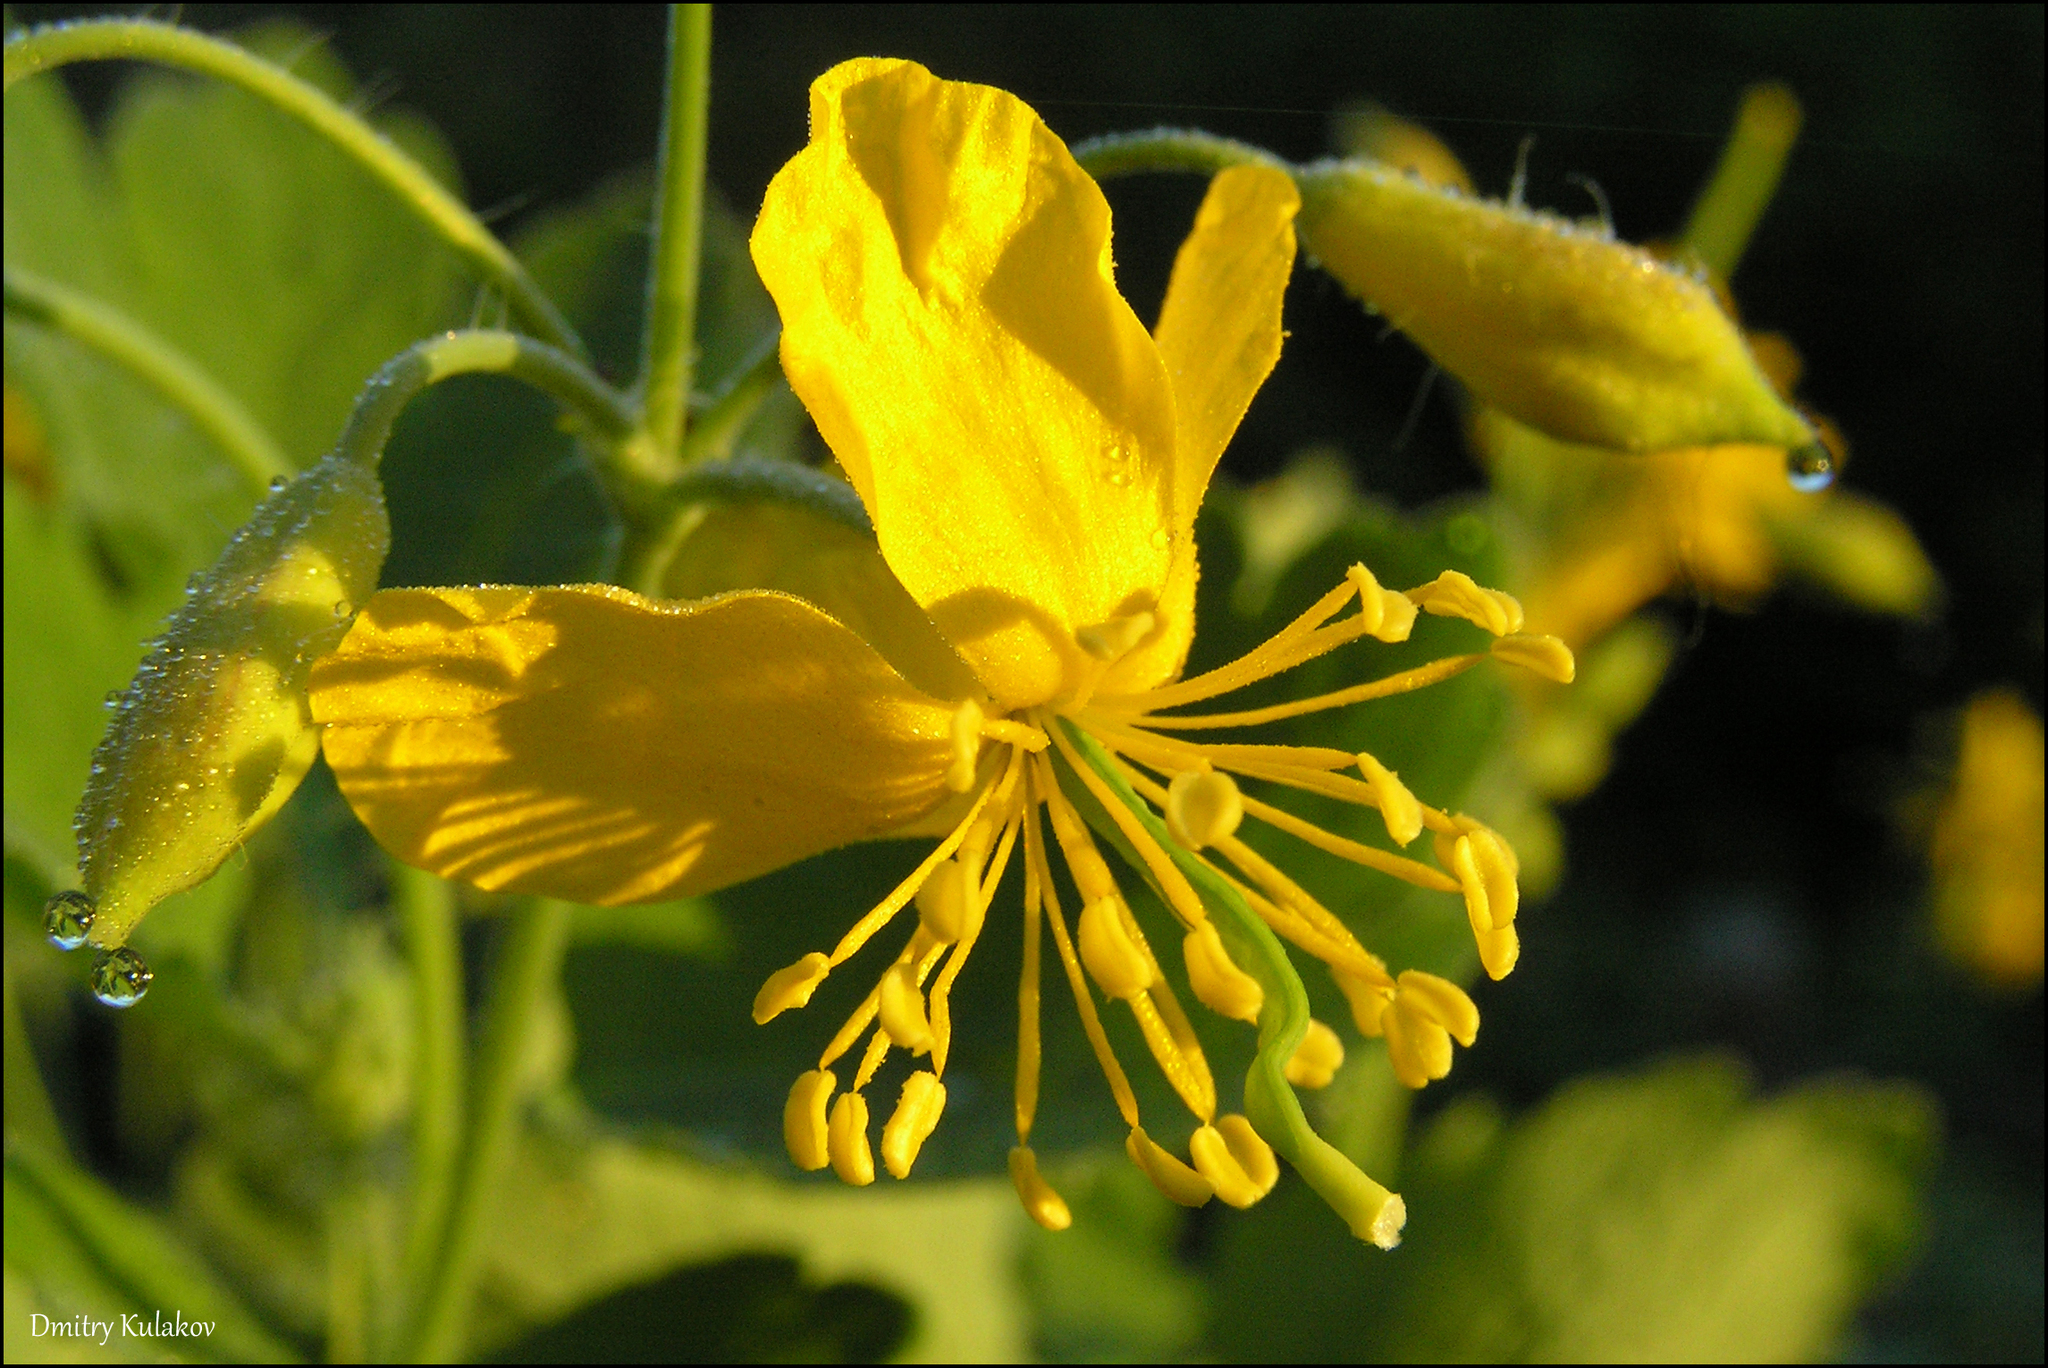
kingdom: Plantae
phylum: Tracheophyta
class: Magnoliopsida
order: Ranunculales
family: Papaveraceae
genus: Chelidonium
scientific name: Chelidonium majus
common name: Greater celandine
